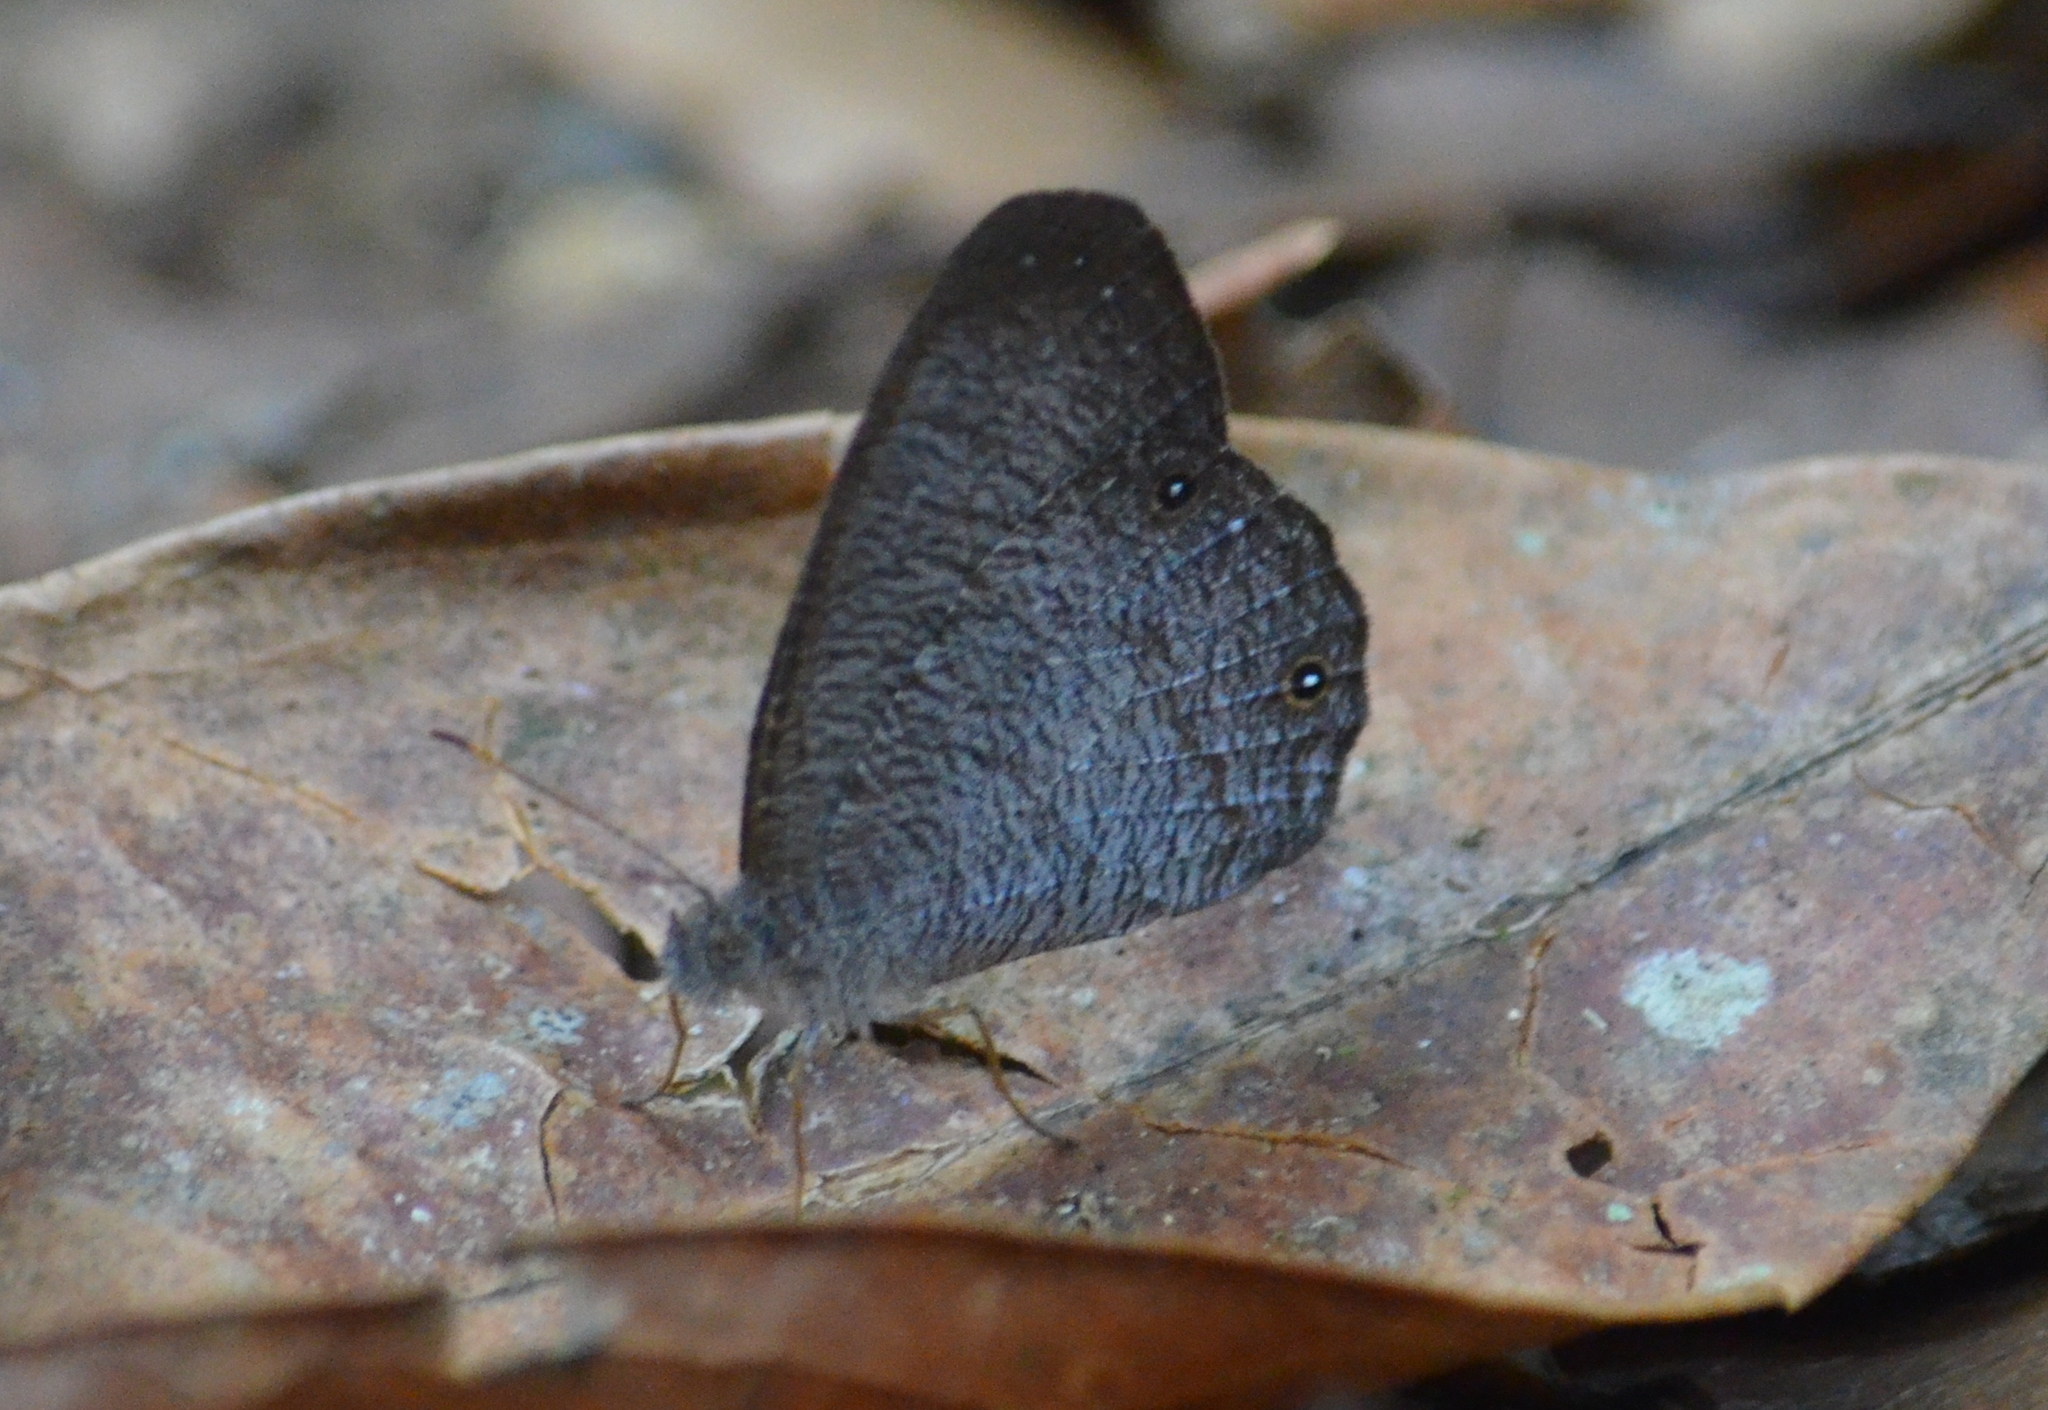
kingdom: Animalia
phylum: Arthropoda
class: Insecta
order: Lepidoptera
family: Nymphalidae
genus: Godartiana
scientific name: Godartiana byses
